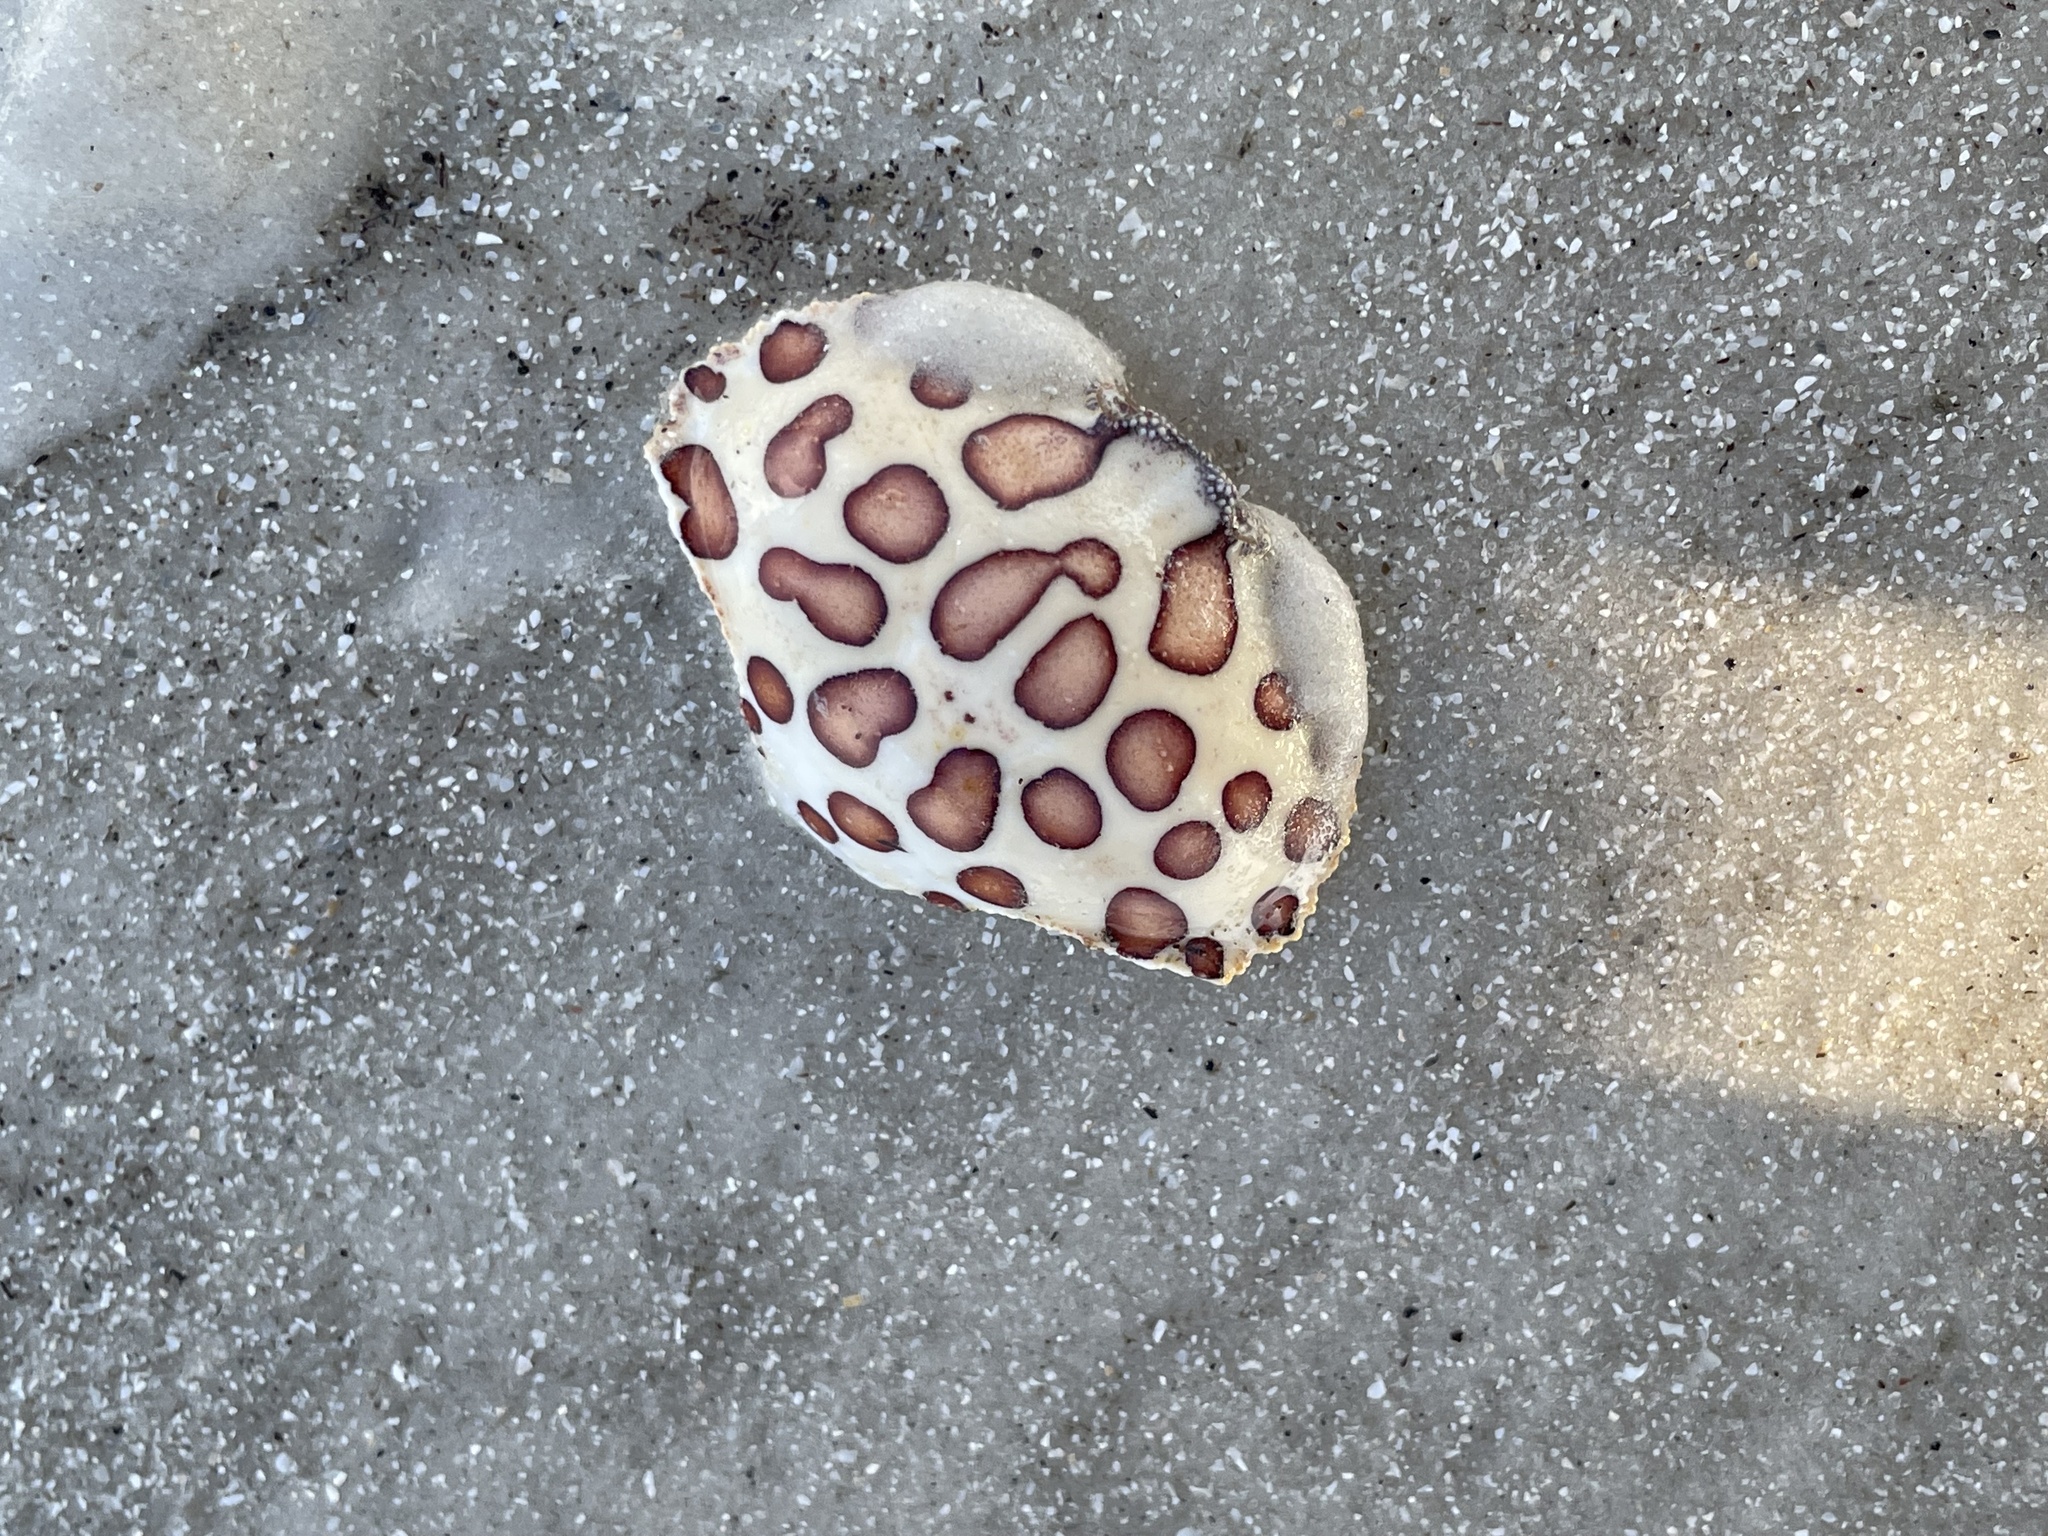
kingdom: Animalia
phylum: Arthropoda
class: Malacostraca
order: Decapoda
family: Aethridae
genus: Hepatus
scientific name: Hepatus epheliticus
